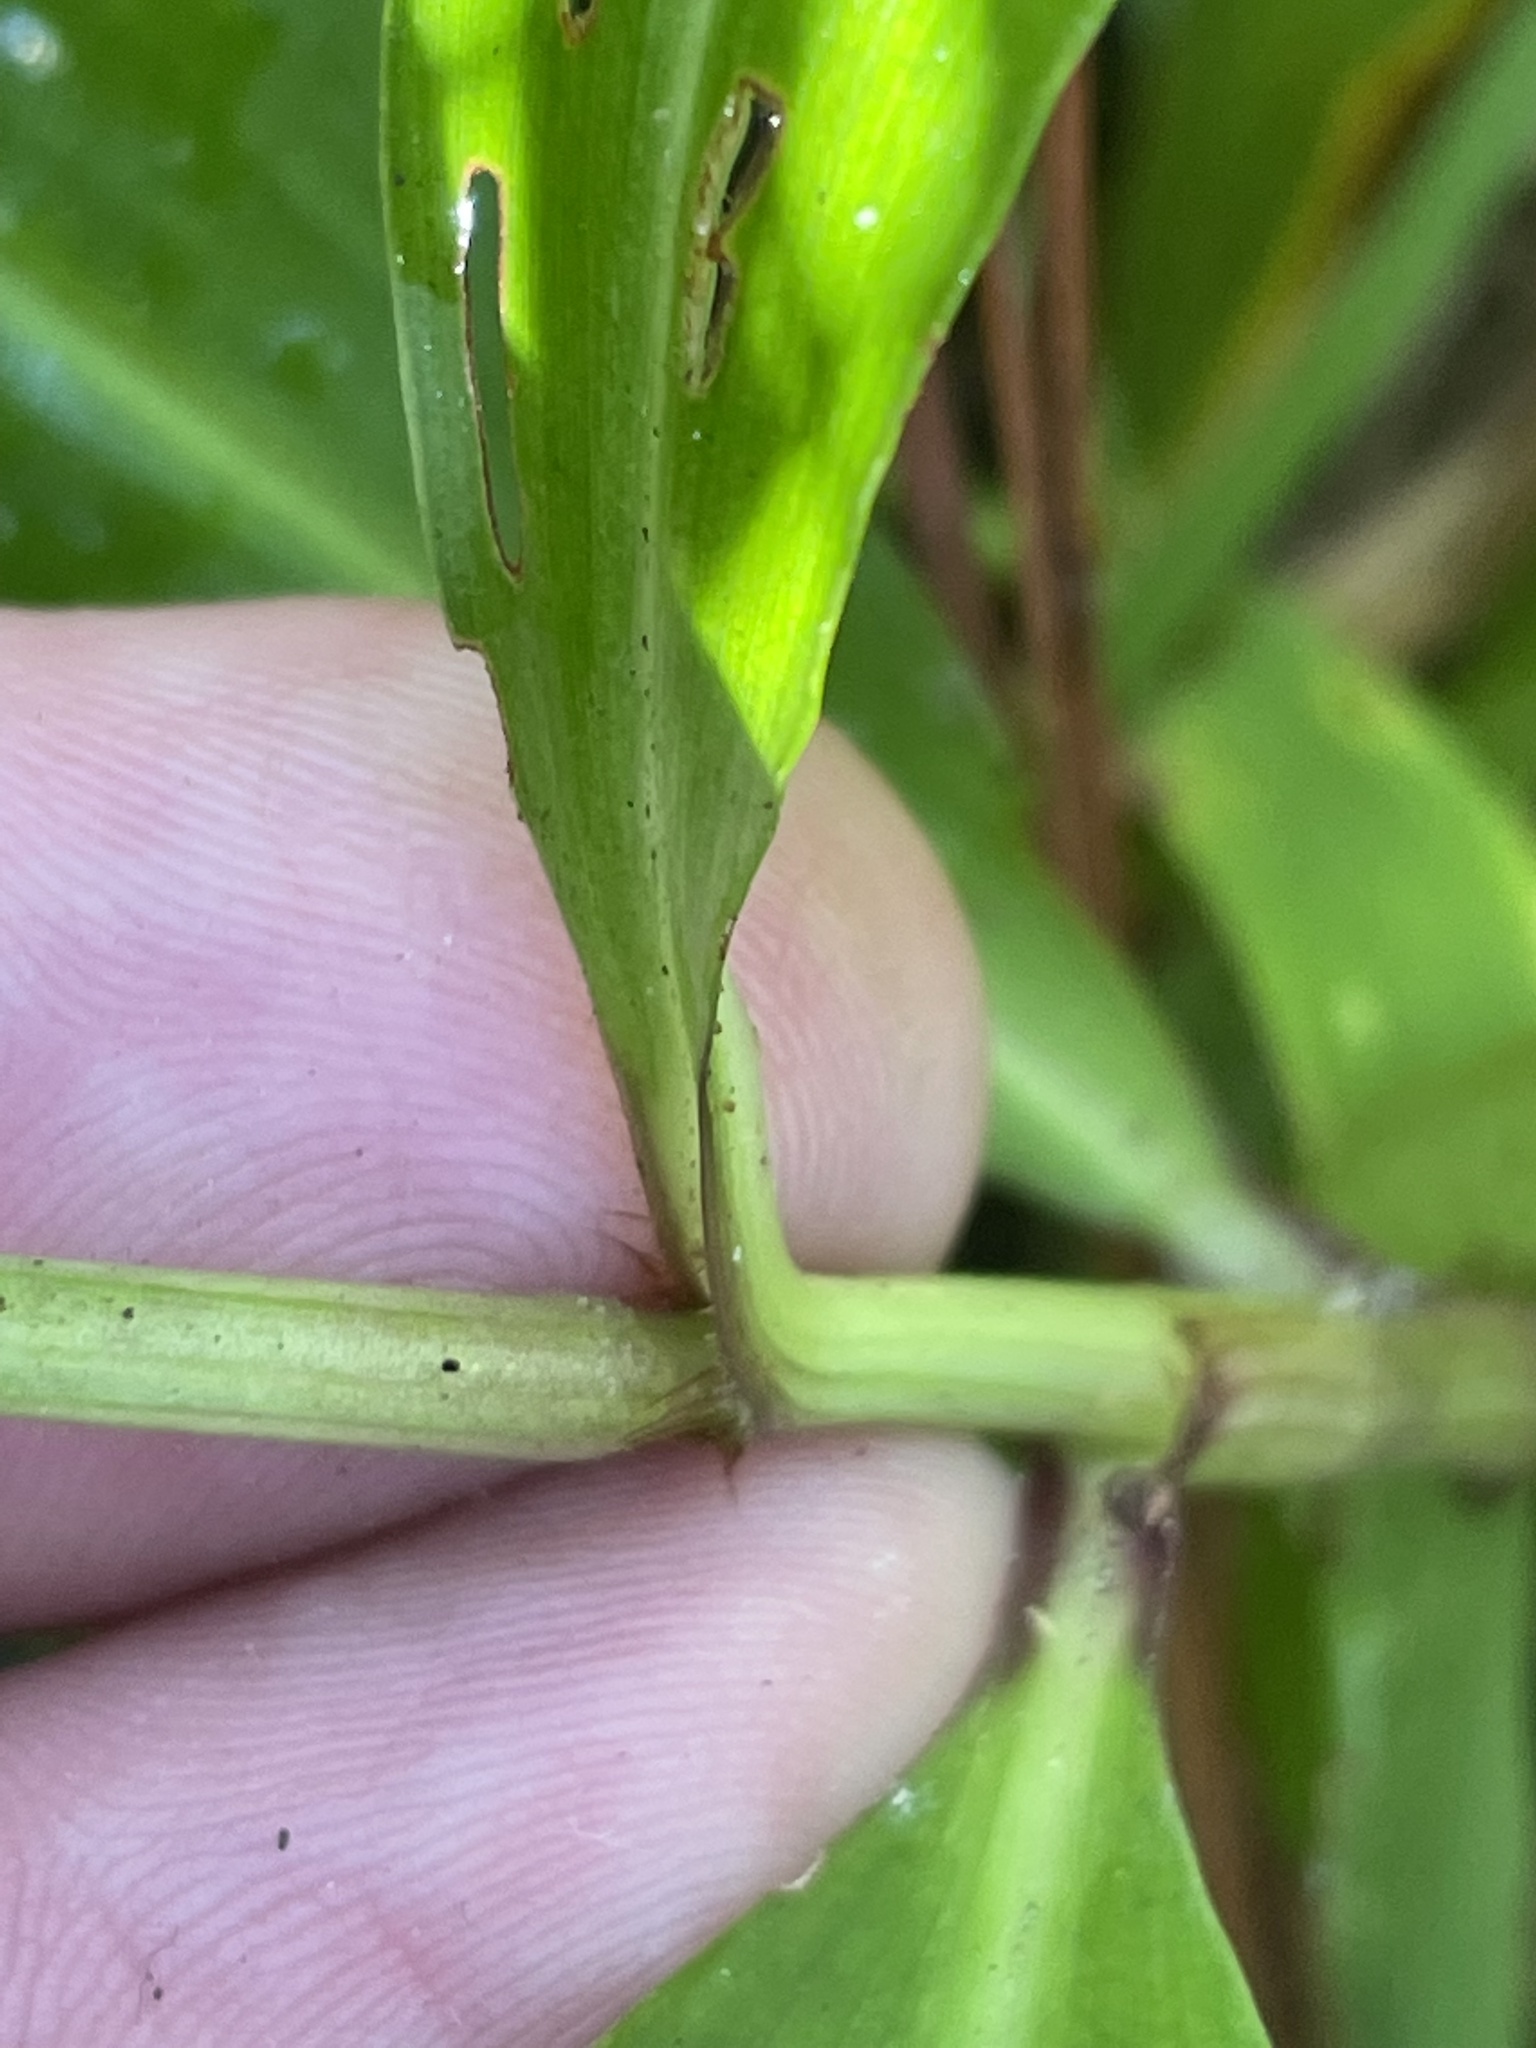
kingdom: Plantae
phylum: Tracheophyta
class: Liliopsida
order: Commelinales
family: Commelinaceae
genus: Commelina
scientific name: Commelina virginica
